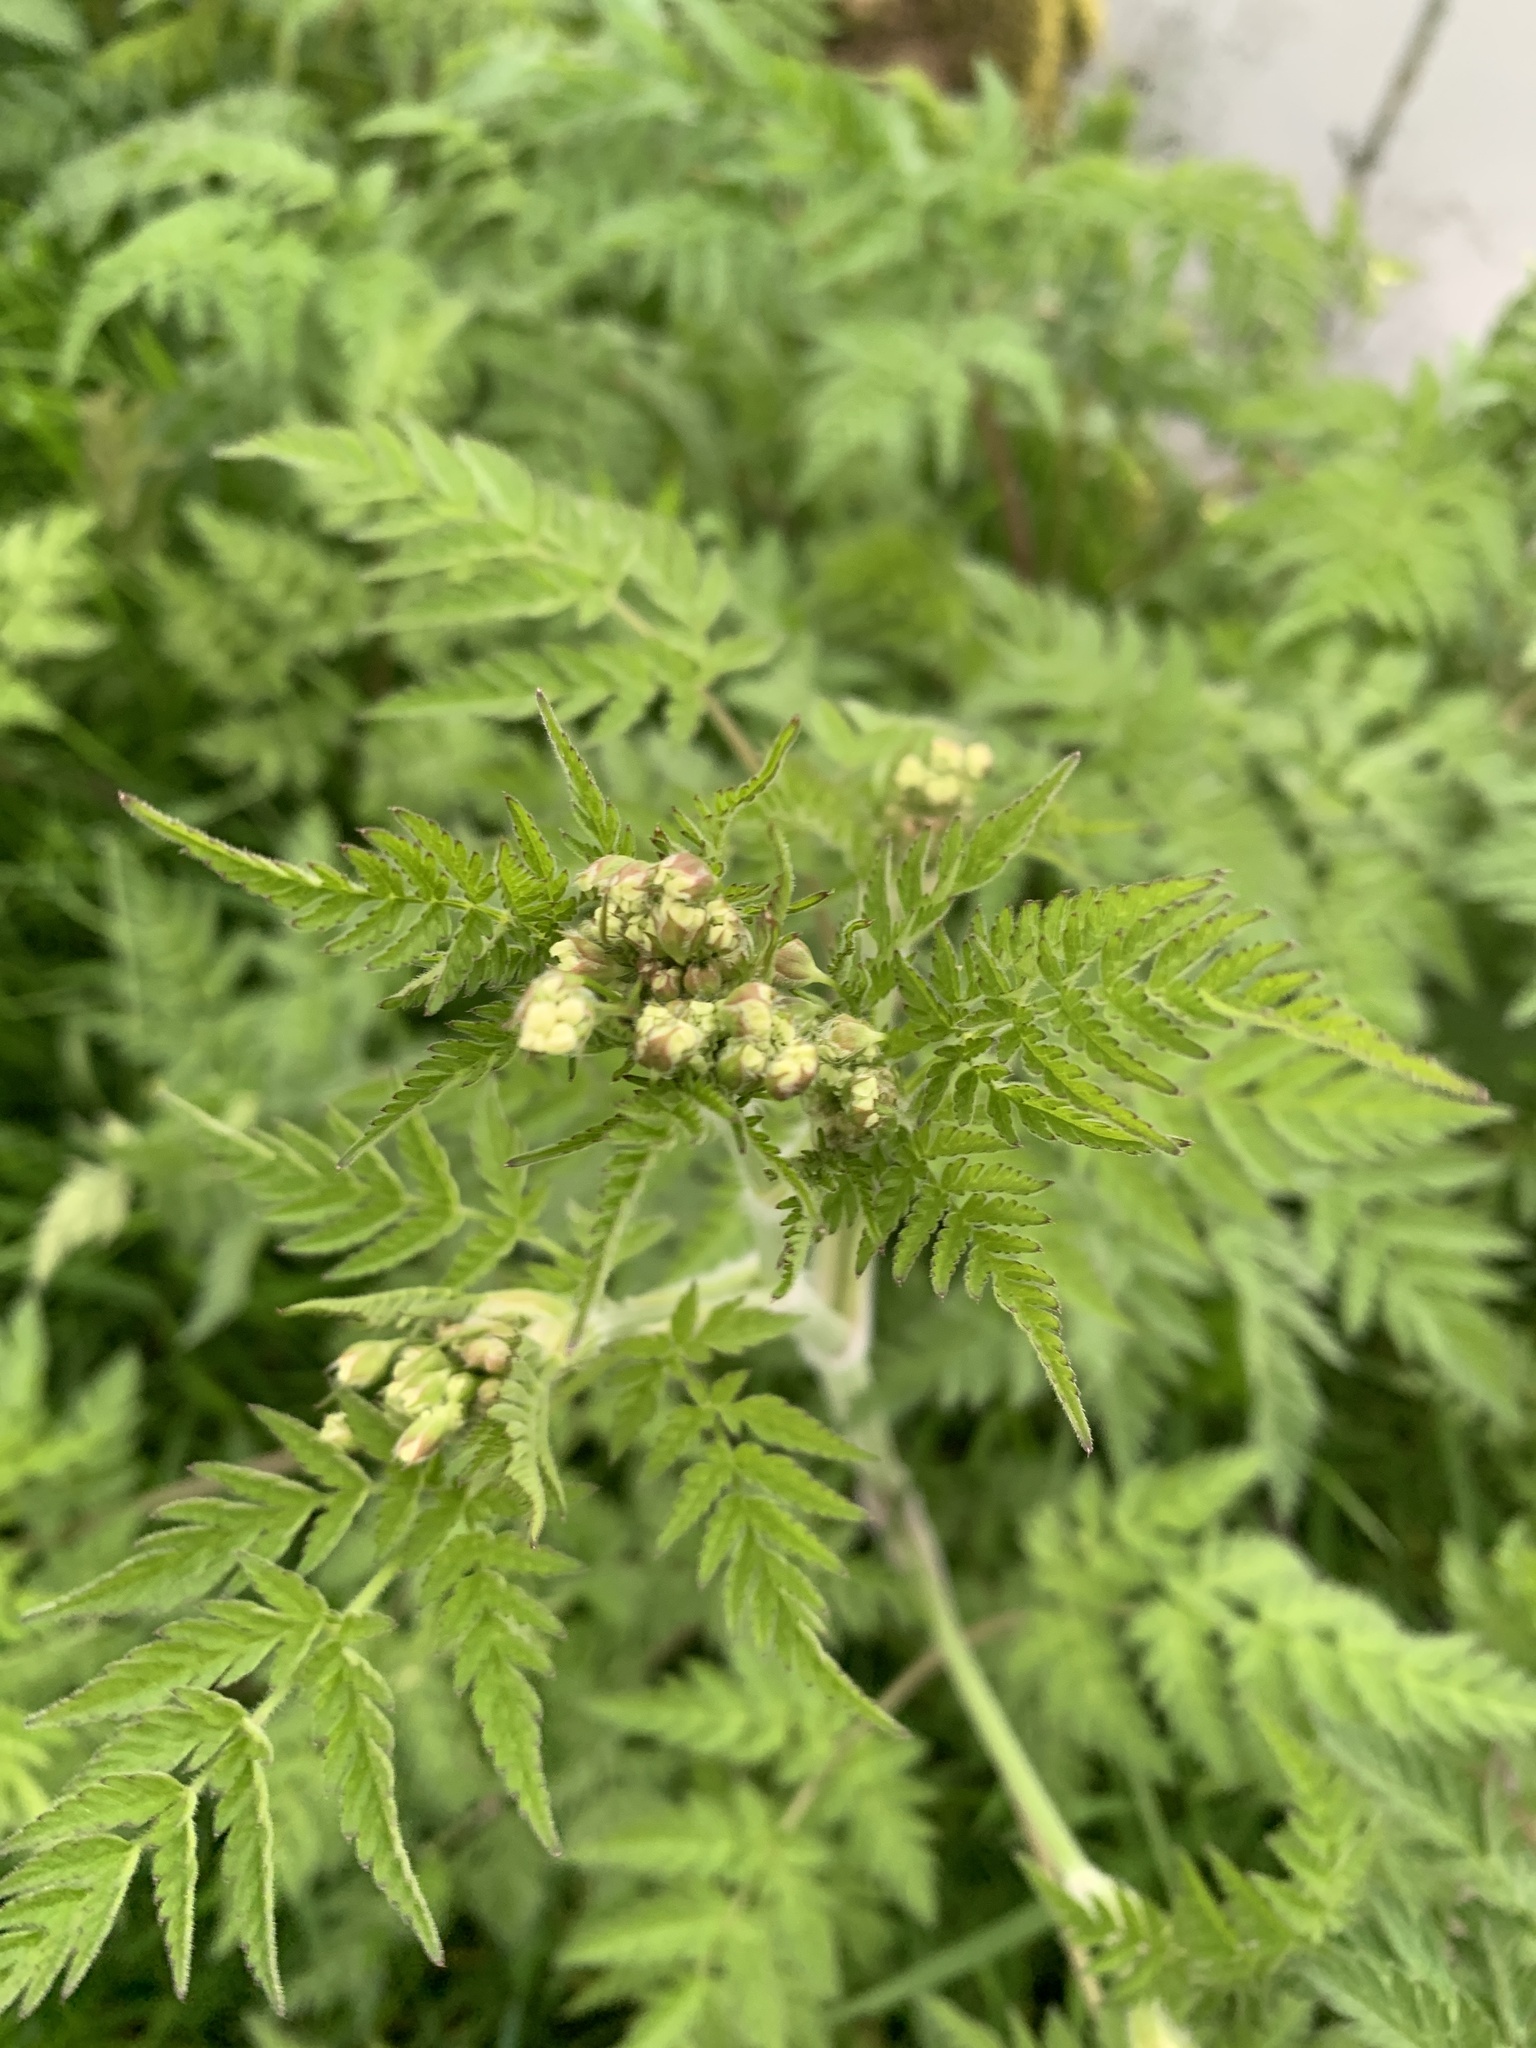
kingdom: Plantae
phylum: Tracheophyta
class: Magnoliopsida
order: Apiales
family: Apiaceae
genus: Anthriscus
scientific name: Anthriscus sylvestris
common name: Cow parsley
